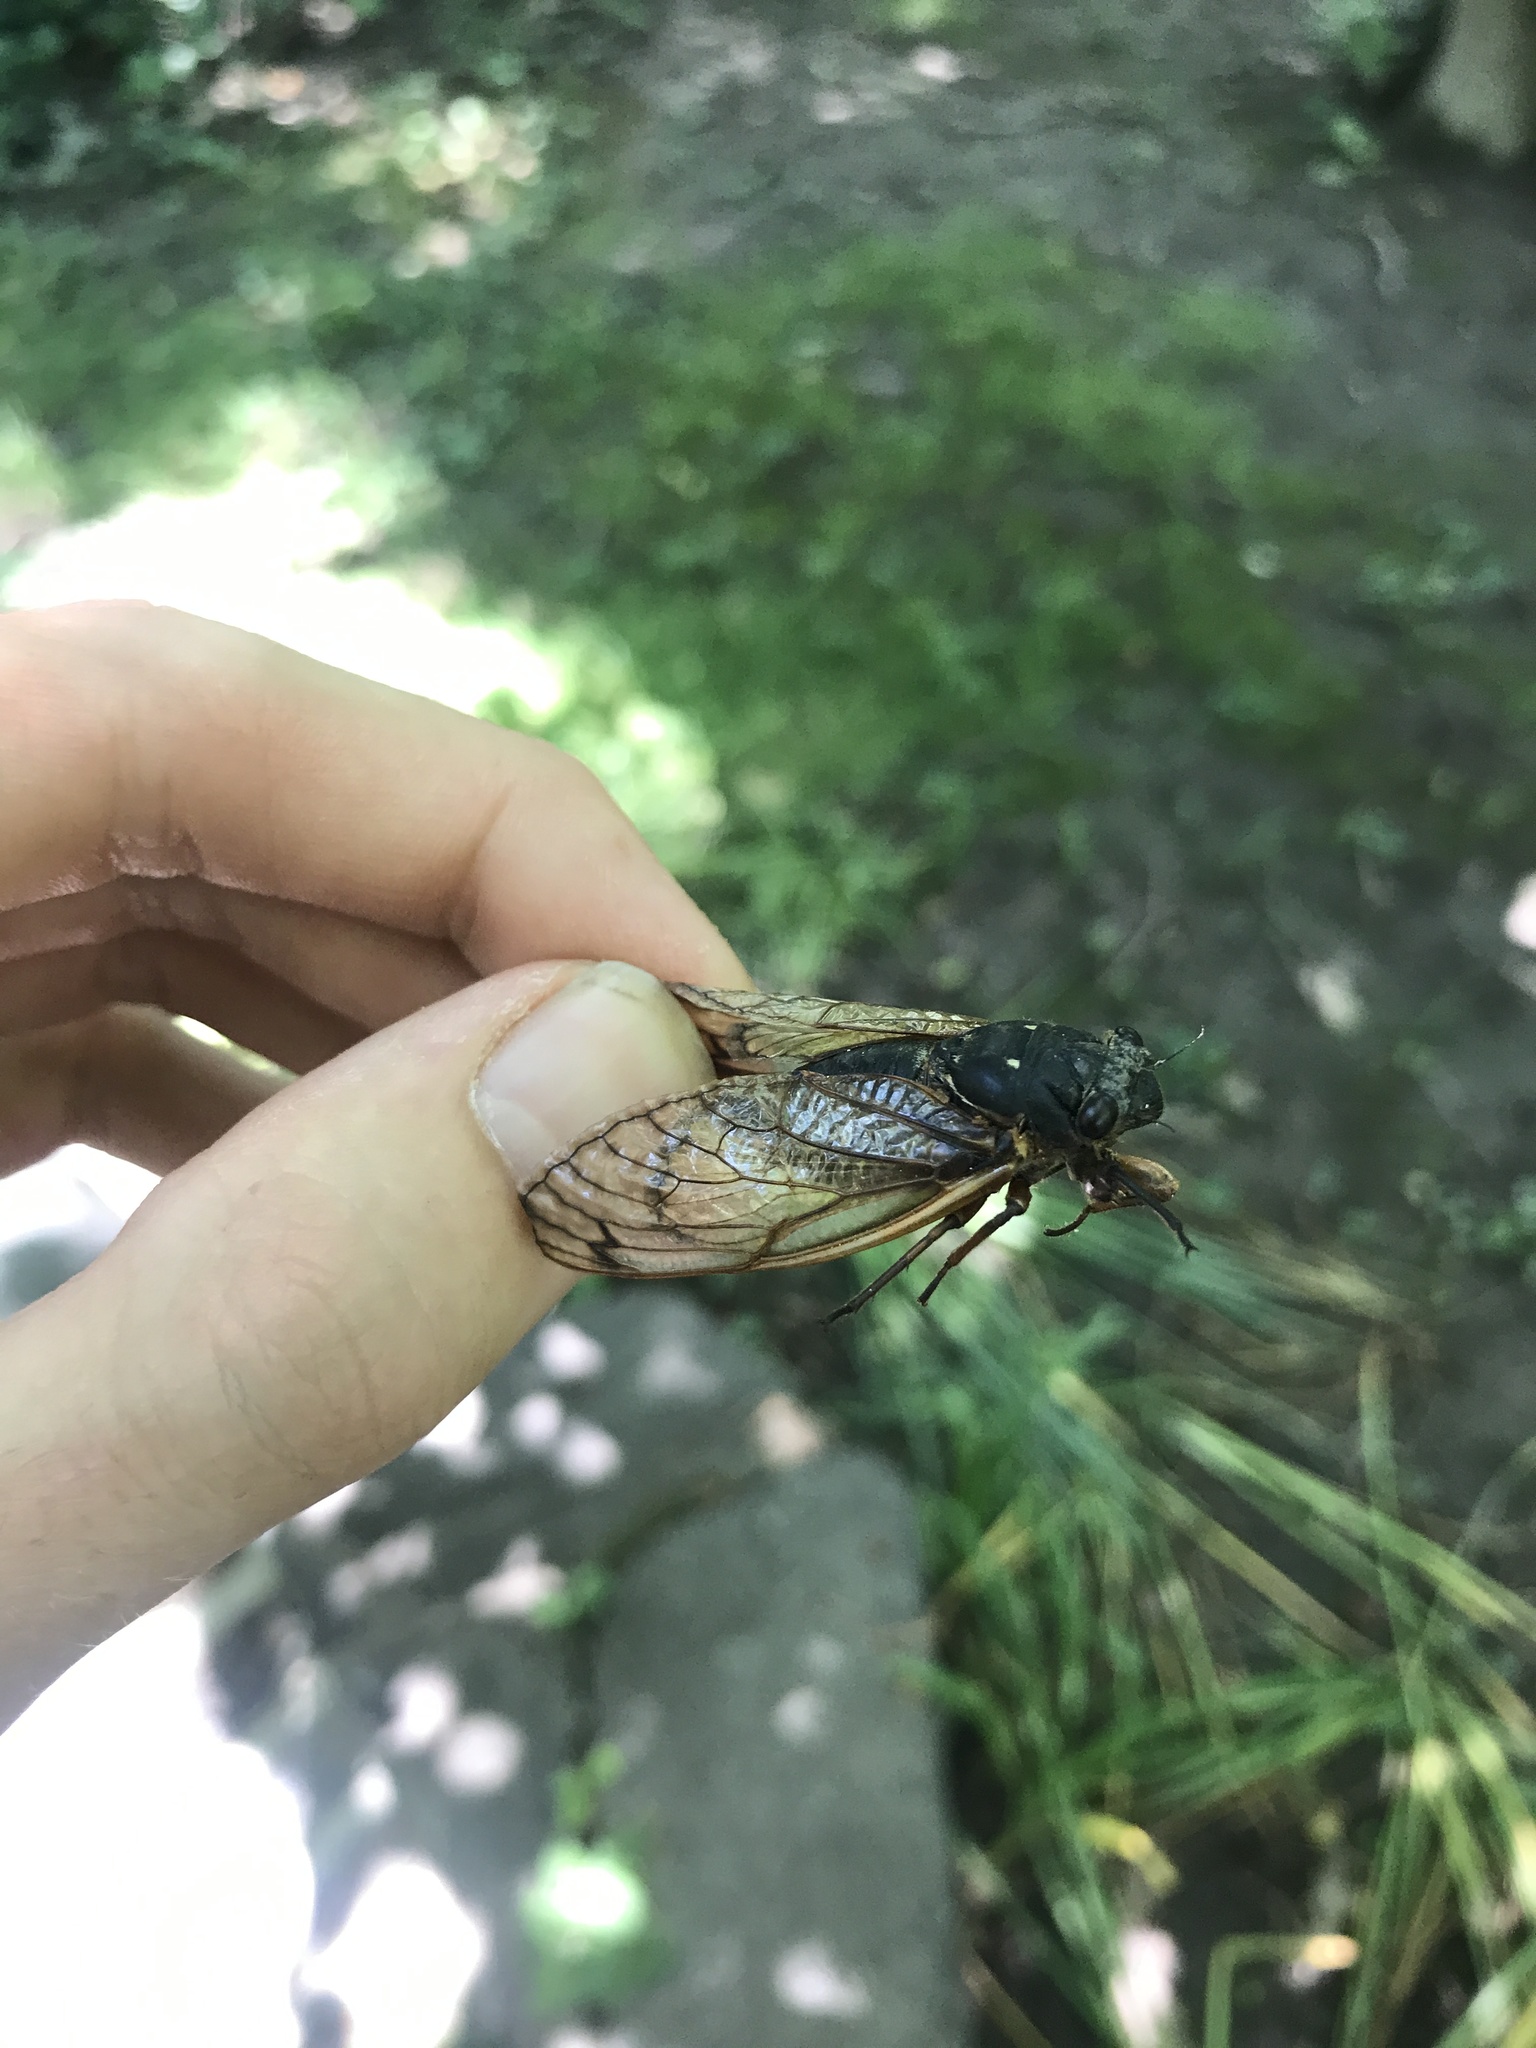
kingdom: Animalia
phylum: Arthropoda
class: Insecta
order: Hemiptera
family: Cicadidae
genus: Magicicada
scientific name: Magicicada
